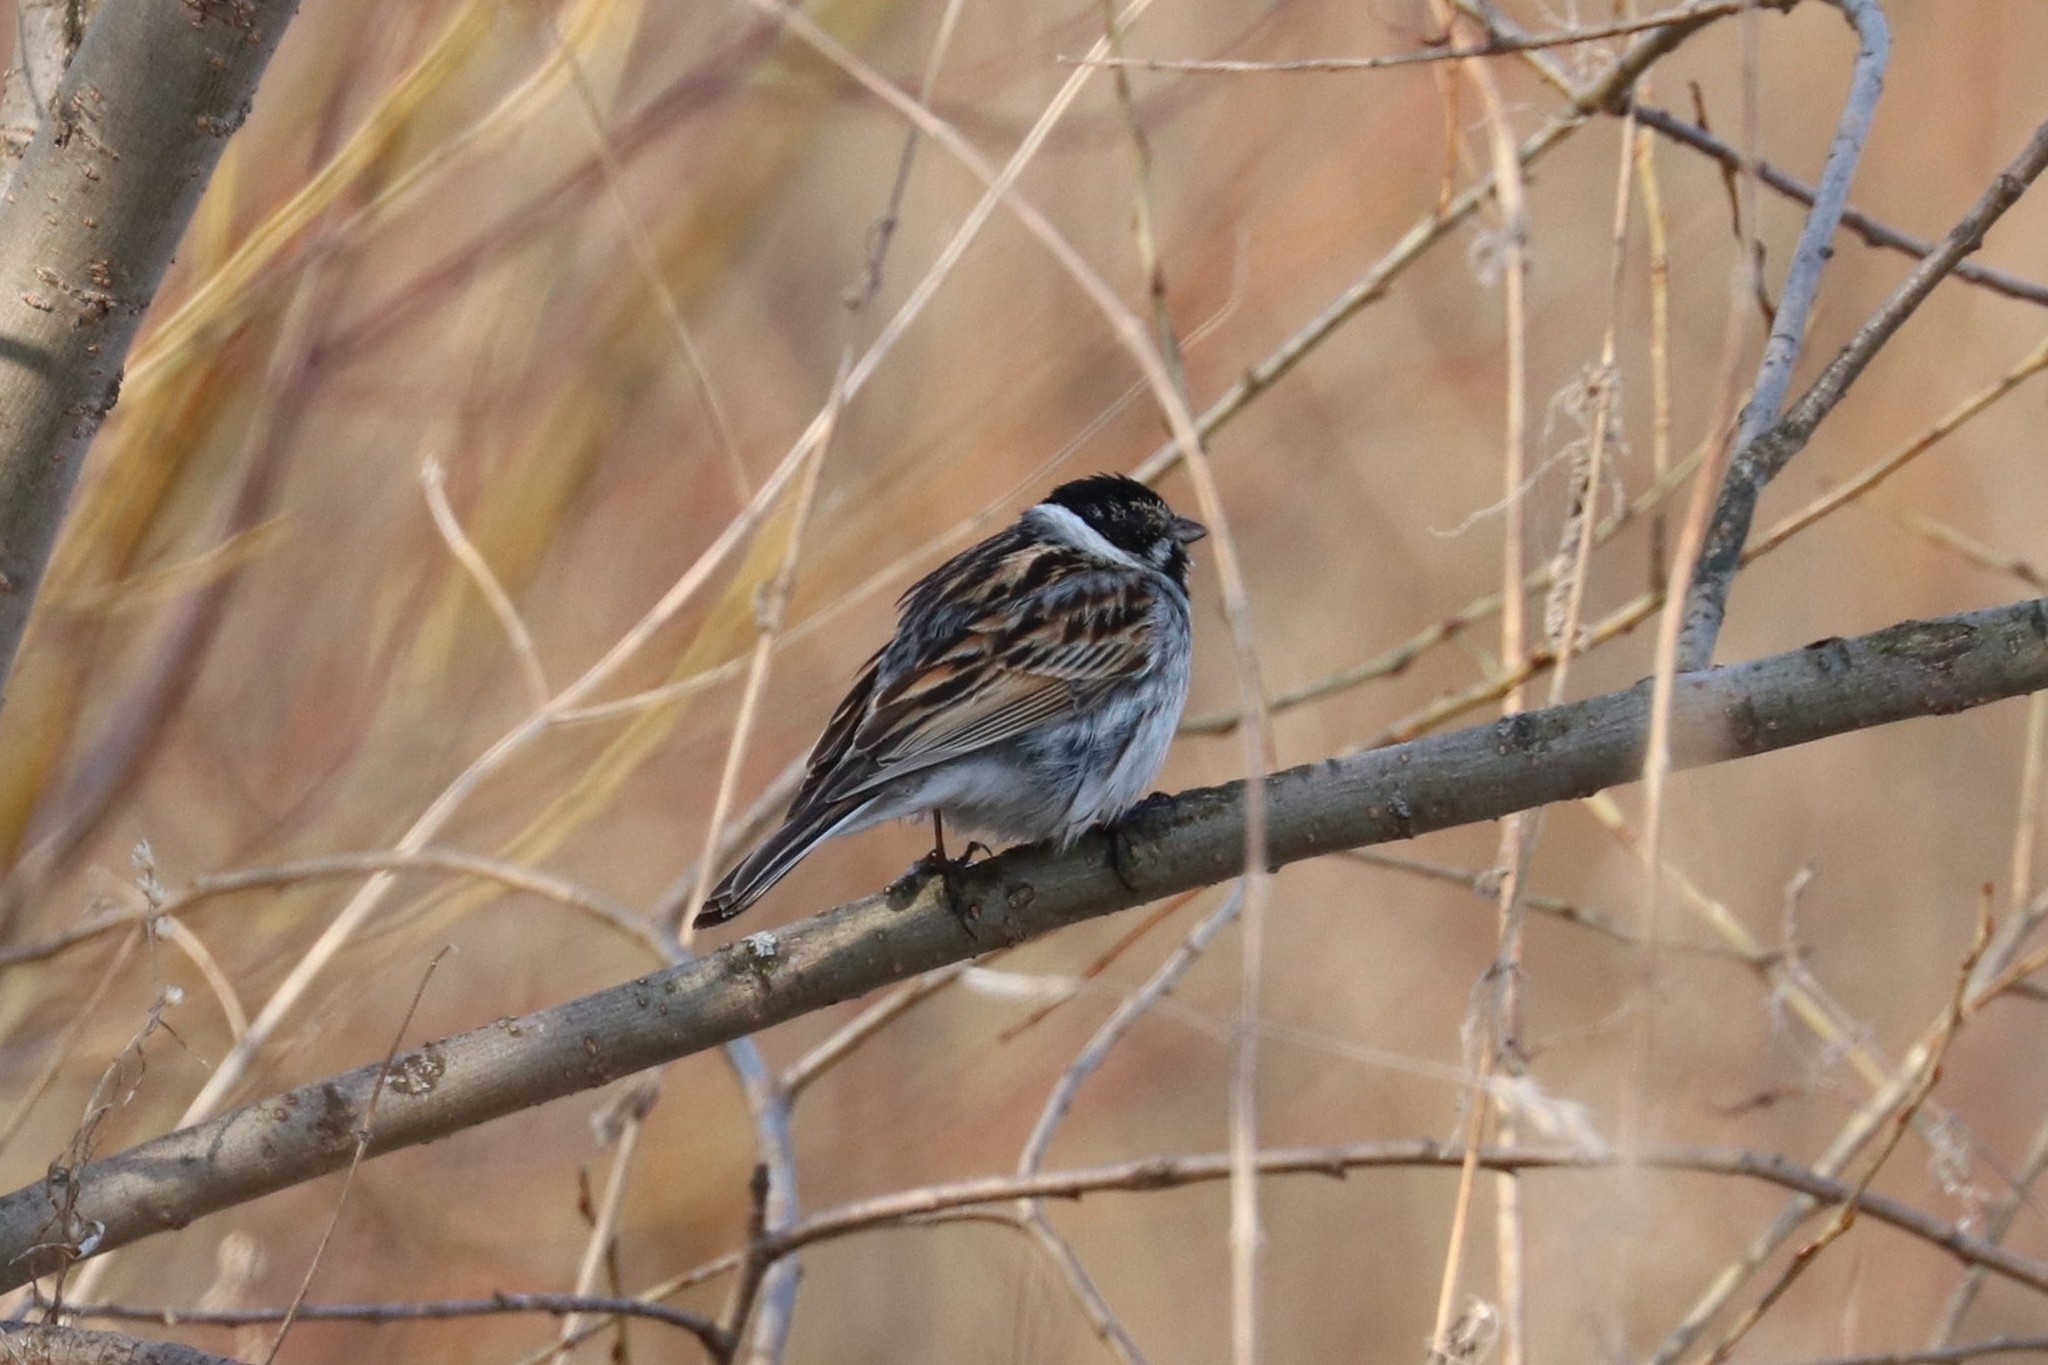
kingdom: Animalia
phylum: Chordata
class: Aves
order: Passeriformes
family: Emberizidae
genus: Emberiza
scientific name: Emberiza schoeniclus
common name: Reed bunting
